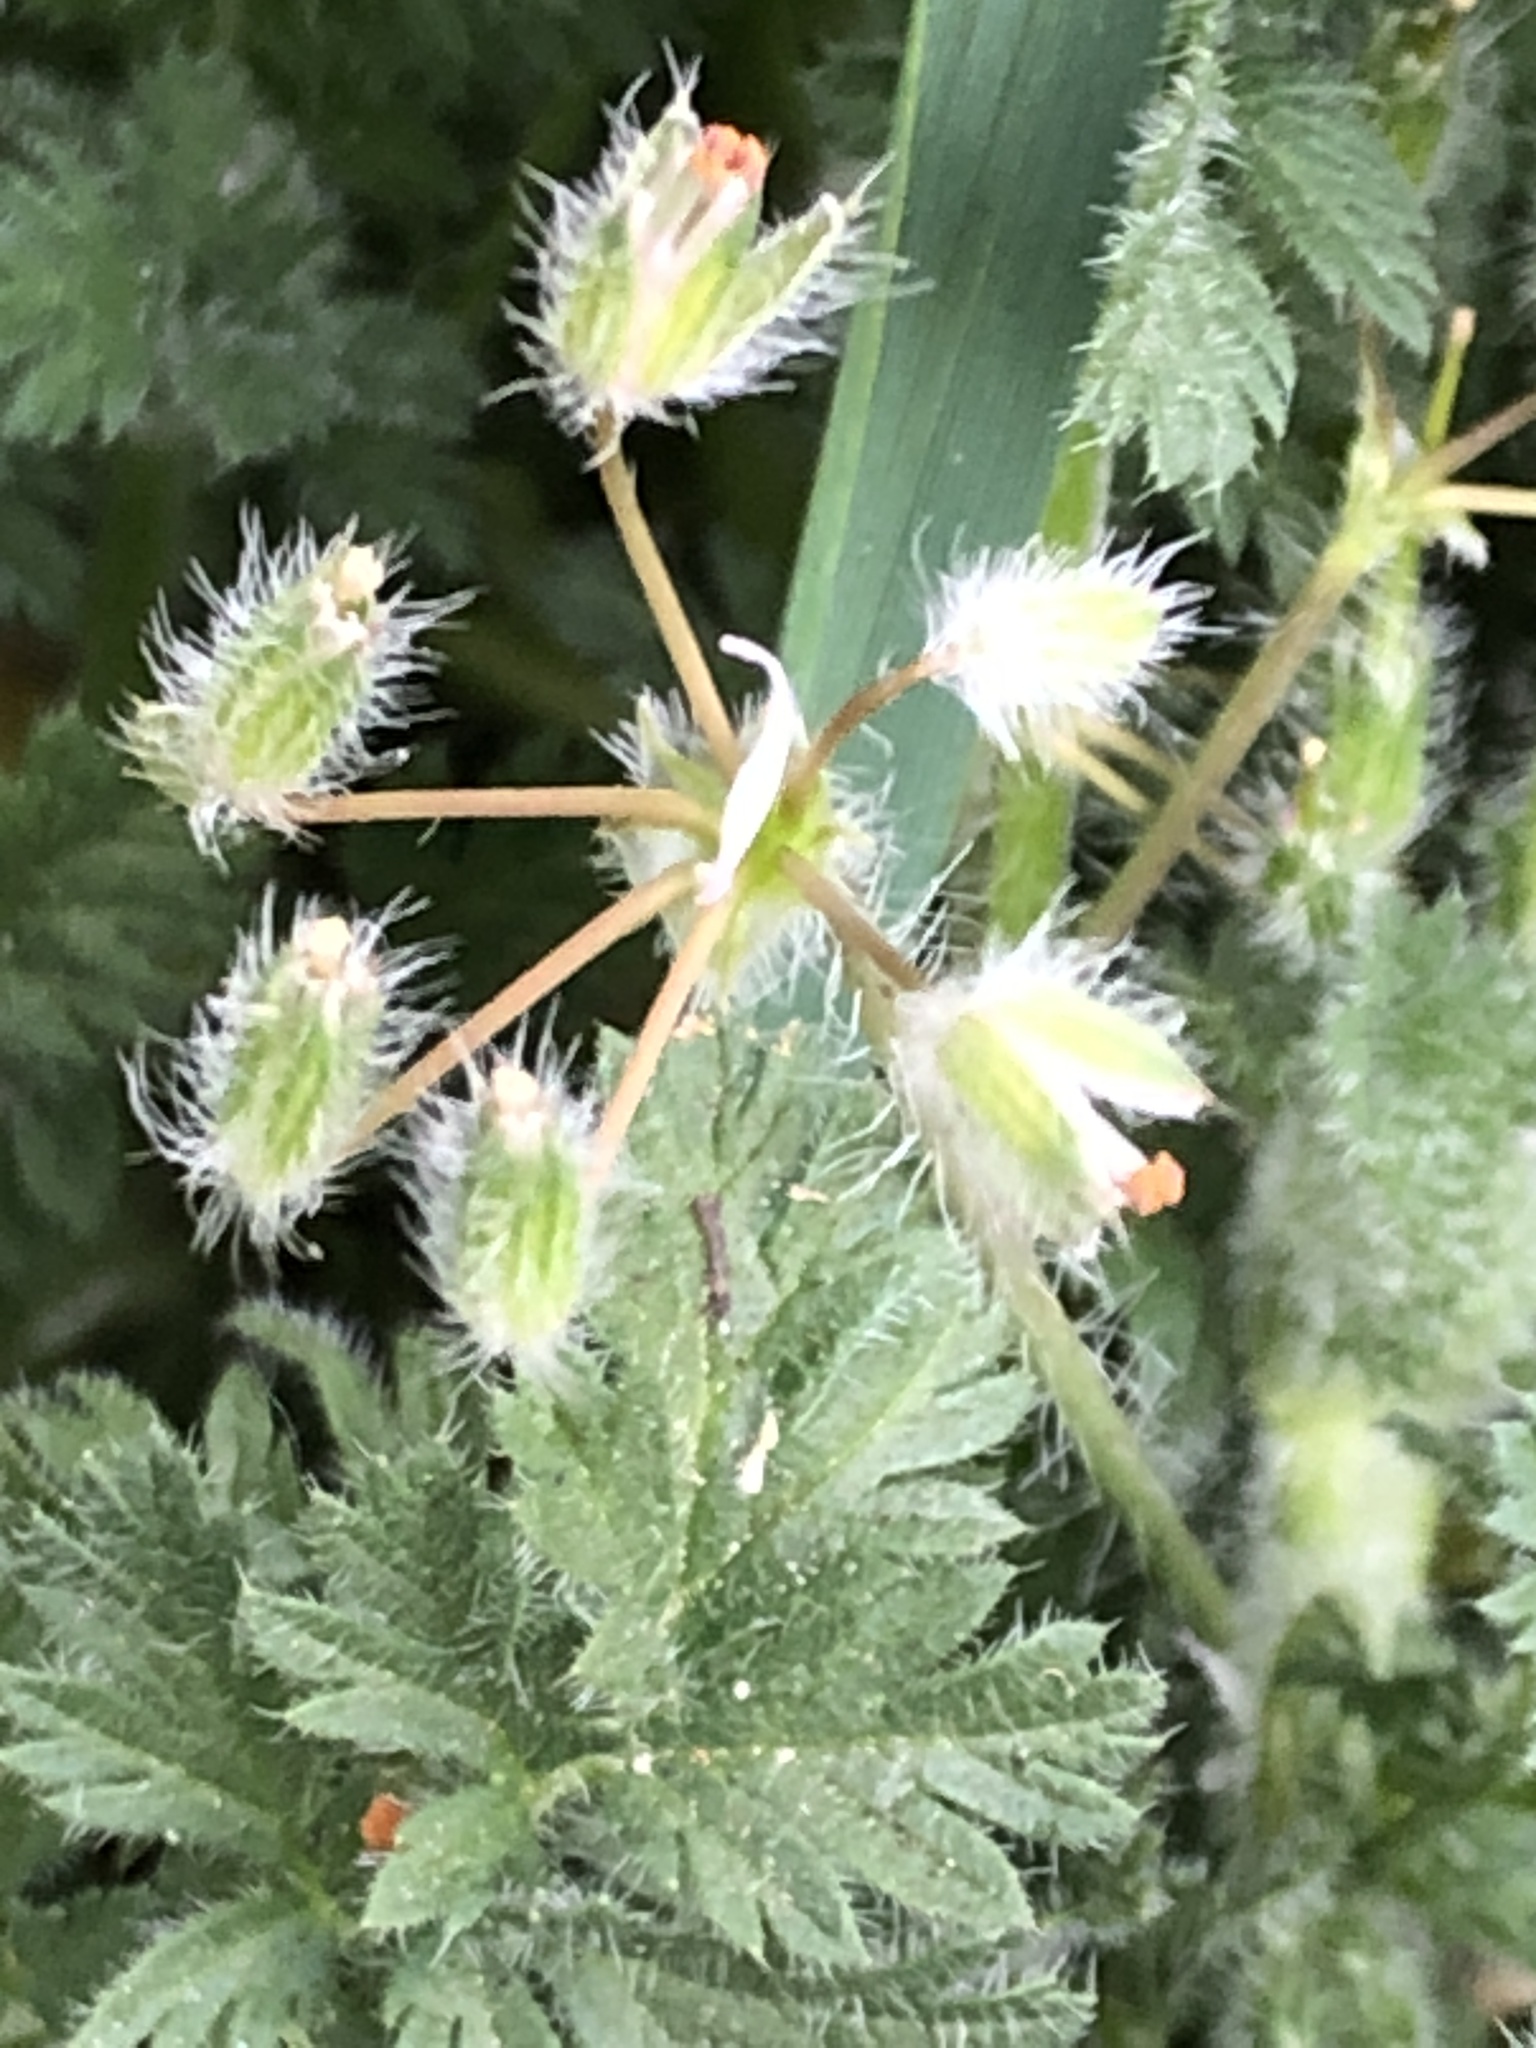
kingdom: Plantae
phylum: Tracheophyta
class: Magnoliopsida
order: Geraniales
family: Geraniaceae
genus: Erodium
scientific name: Erodium cicutarium
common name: Common stork's-bill
